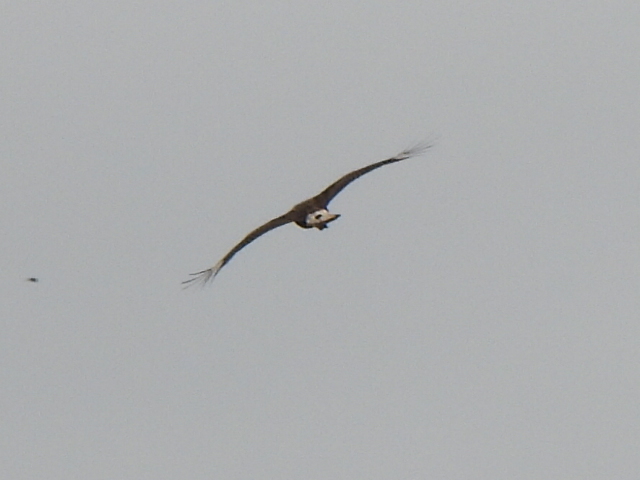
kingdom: Animalia
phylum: Chordata
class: Aves
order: Falconiformes
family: Falconidae
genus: Caracara
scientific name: Caracara plancus
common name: Southern caracara
